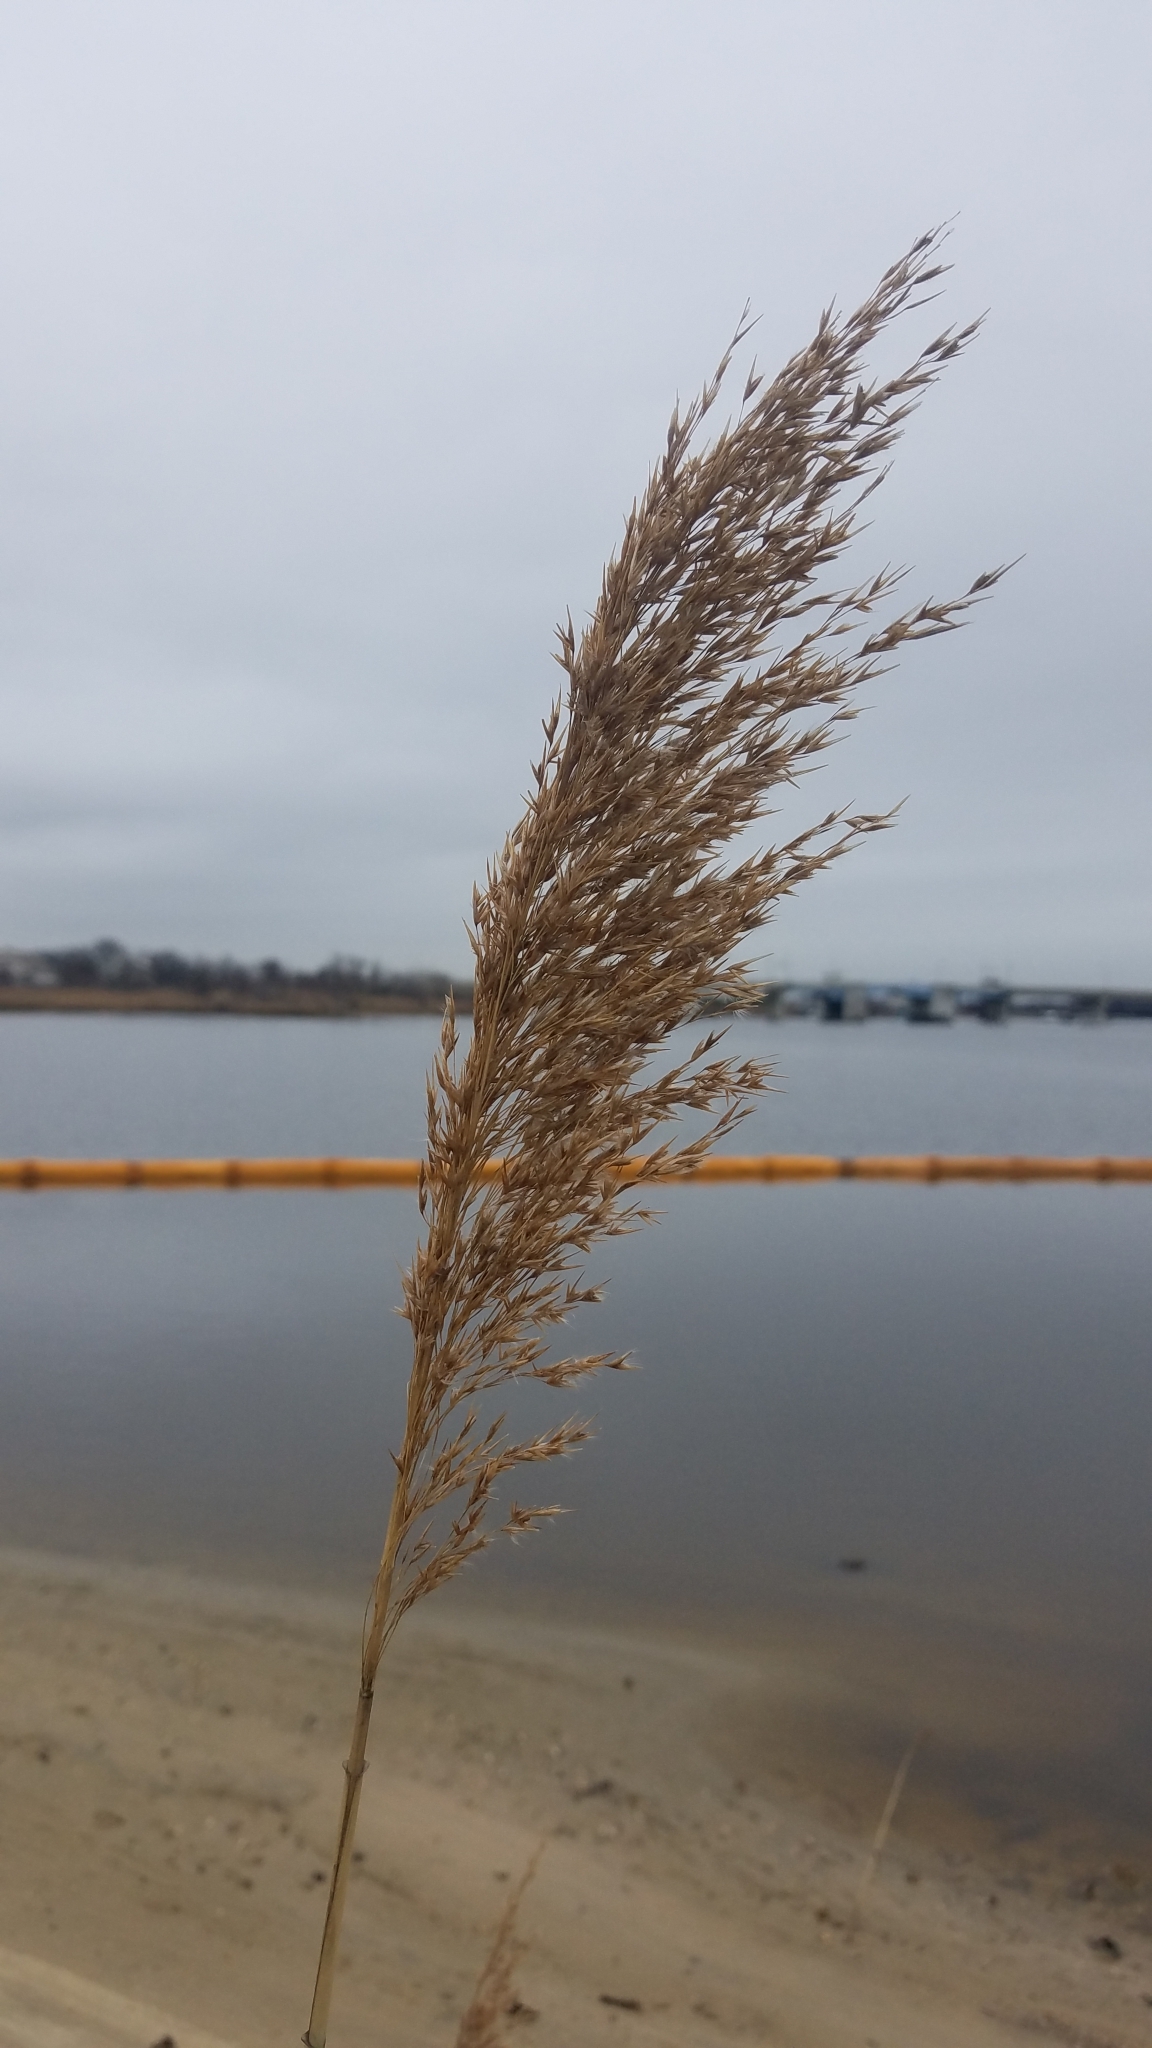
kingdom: Plantae
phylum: Tracheophyta
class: Liliopsida
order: Poales
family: Poaceae
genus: Phragmites
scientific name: Phragmites australis
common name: Common reed
